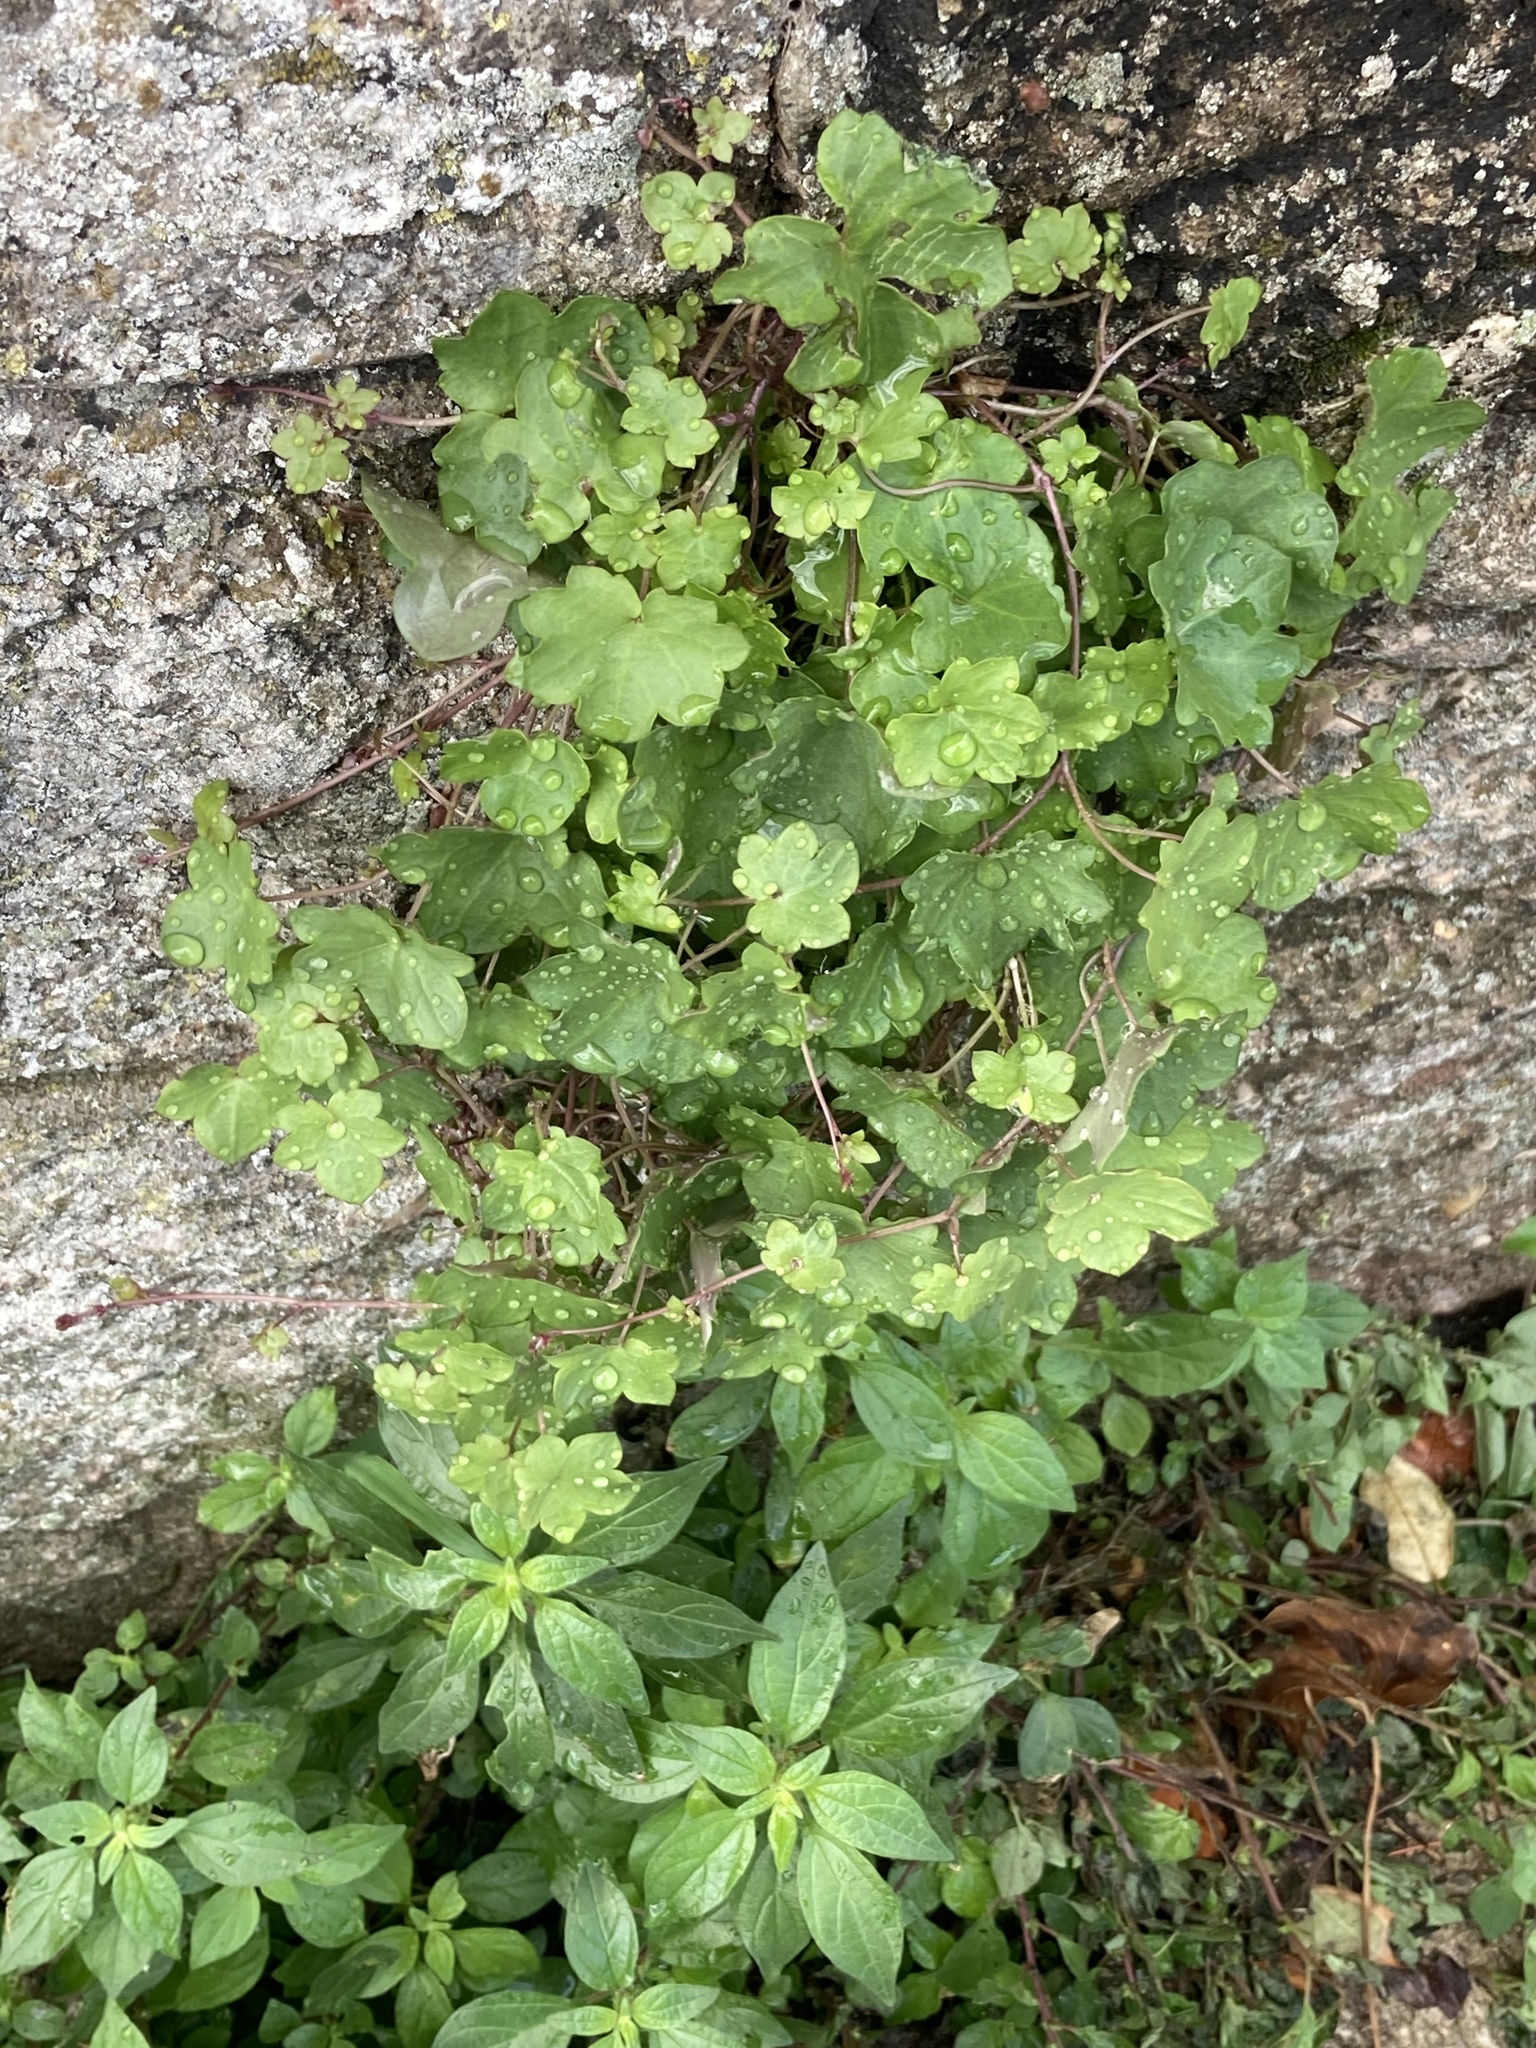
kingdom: Plantae
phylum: Tracheophyta
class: Magnoliopsida
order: Lamiales
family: Plantaginaceae
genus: Cymbalaria
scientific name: Cymbalaria muralis
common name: Ivy-leaved toadflax
